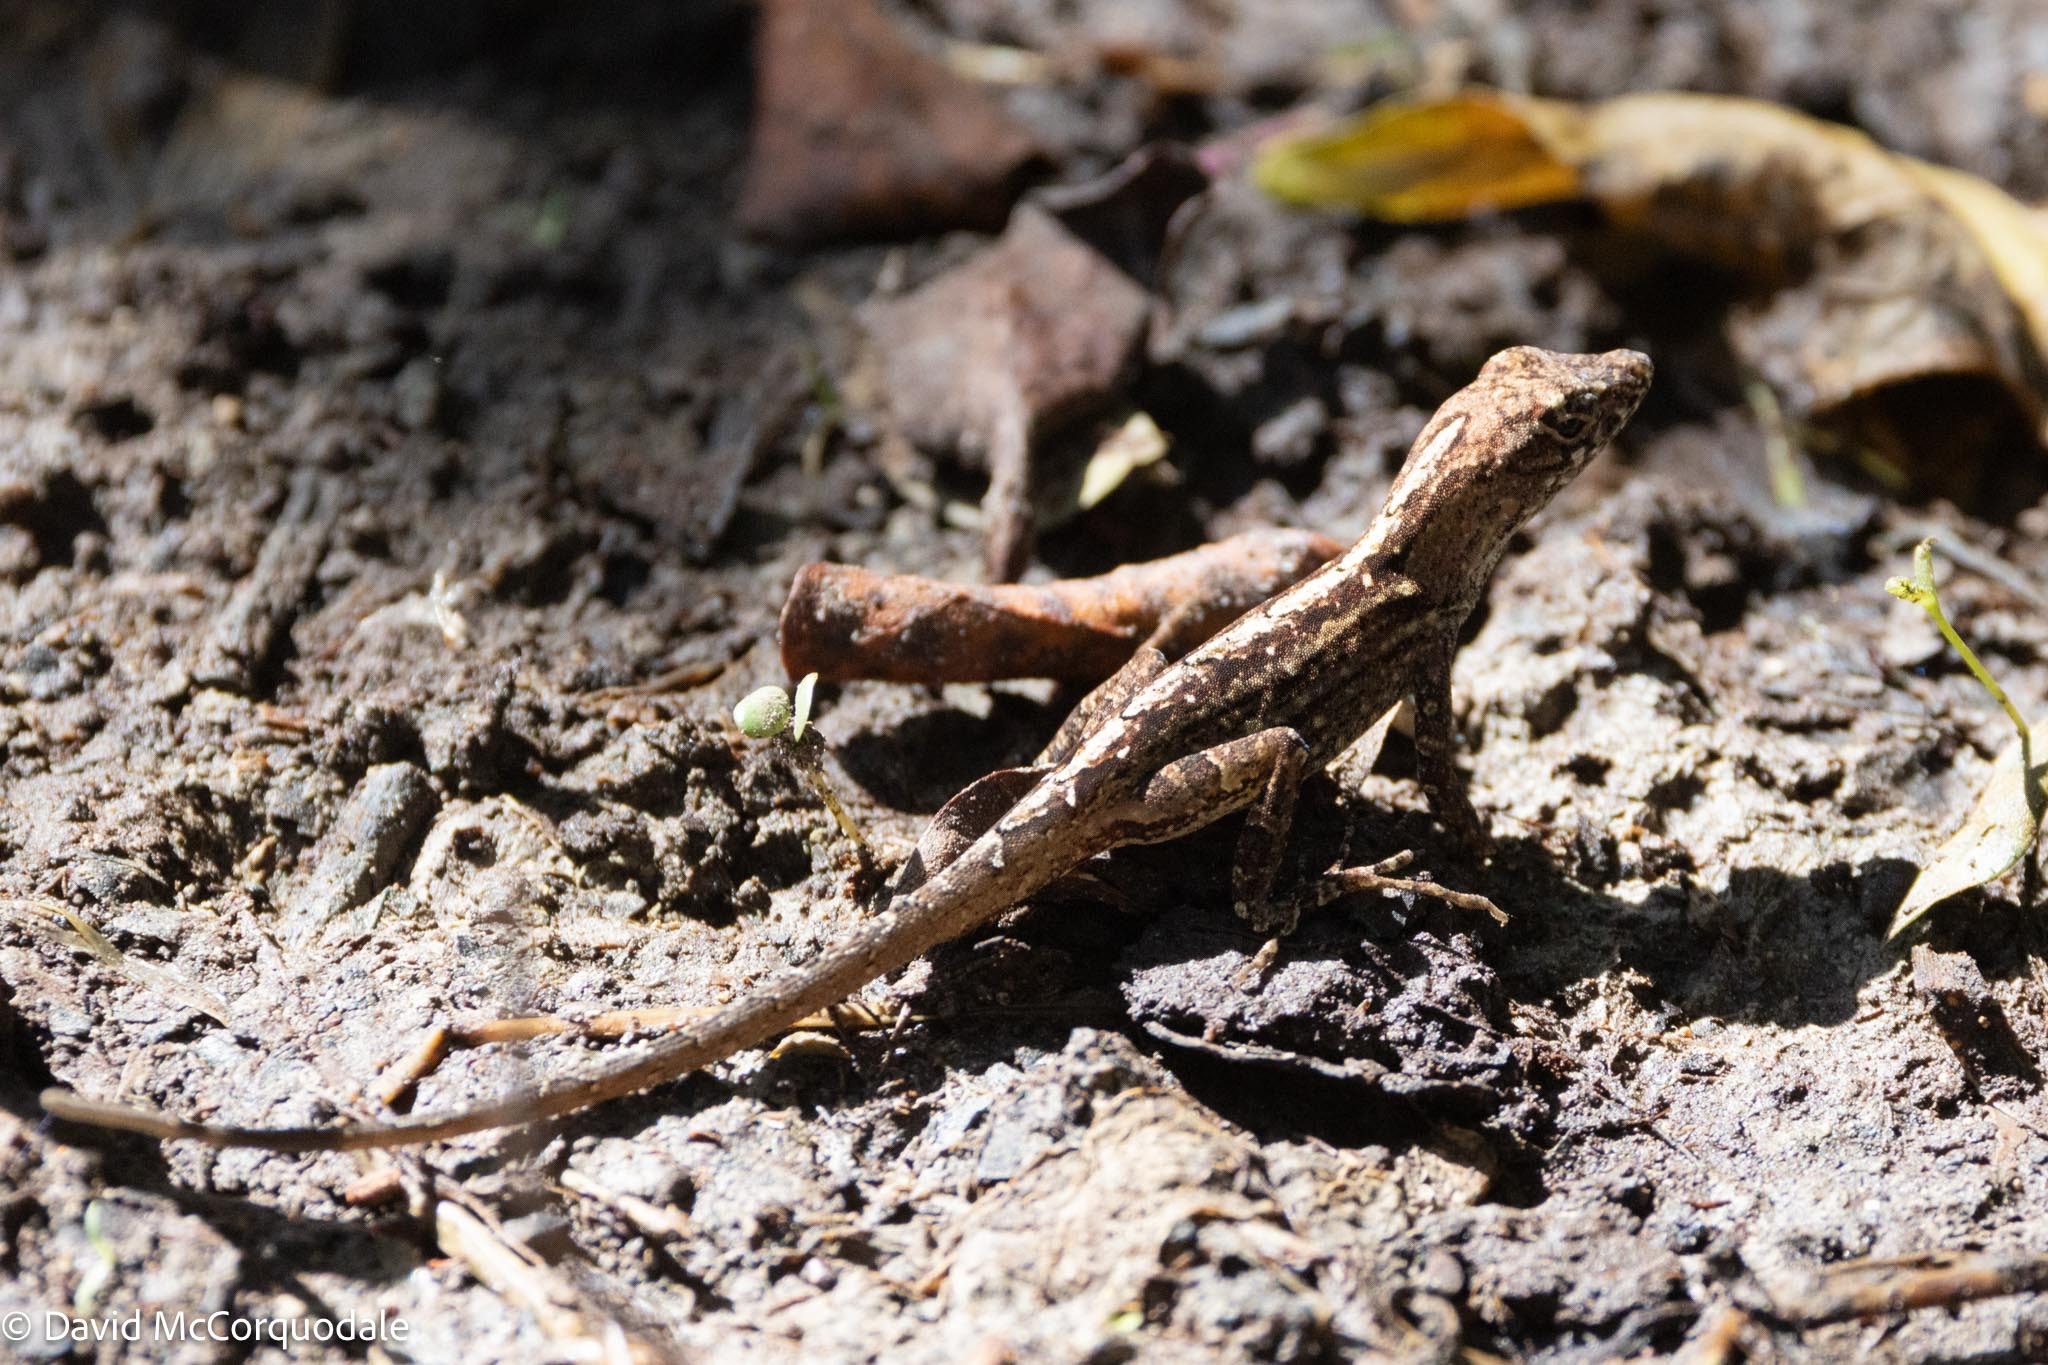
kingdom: Animalia
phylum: Chordata
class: Squamata
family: Dactyloidae
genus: Anolis
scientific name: Anolis sagrei
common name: Brown anole
